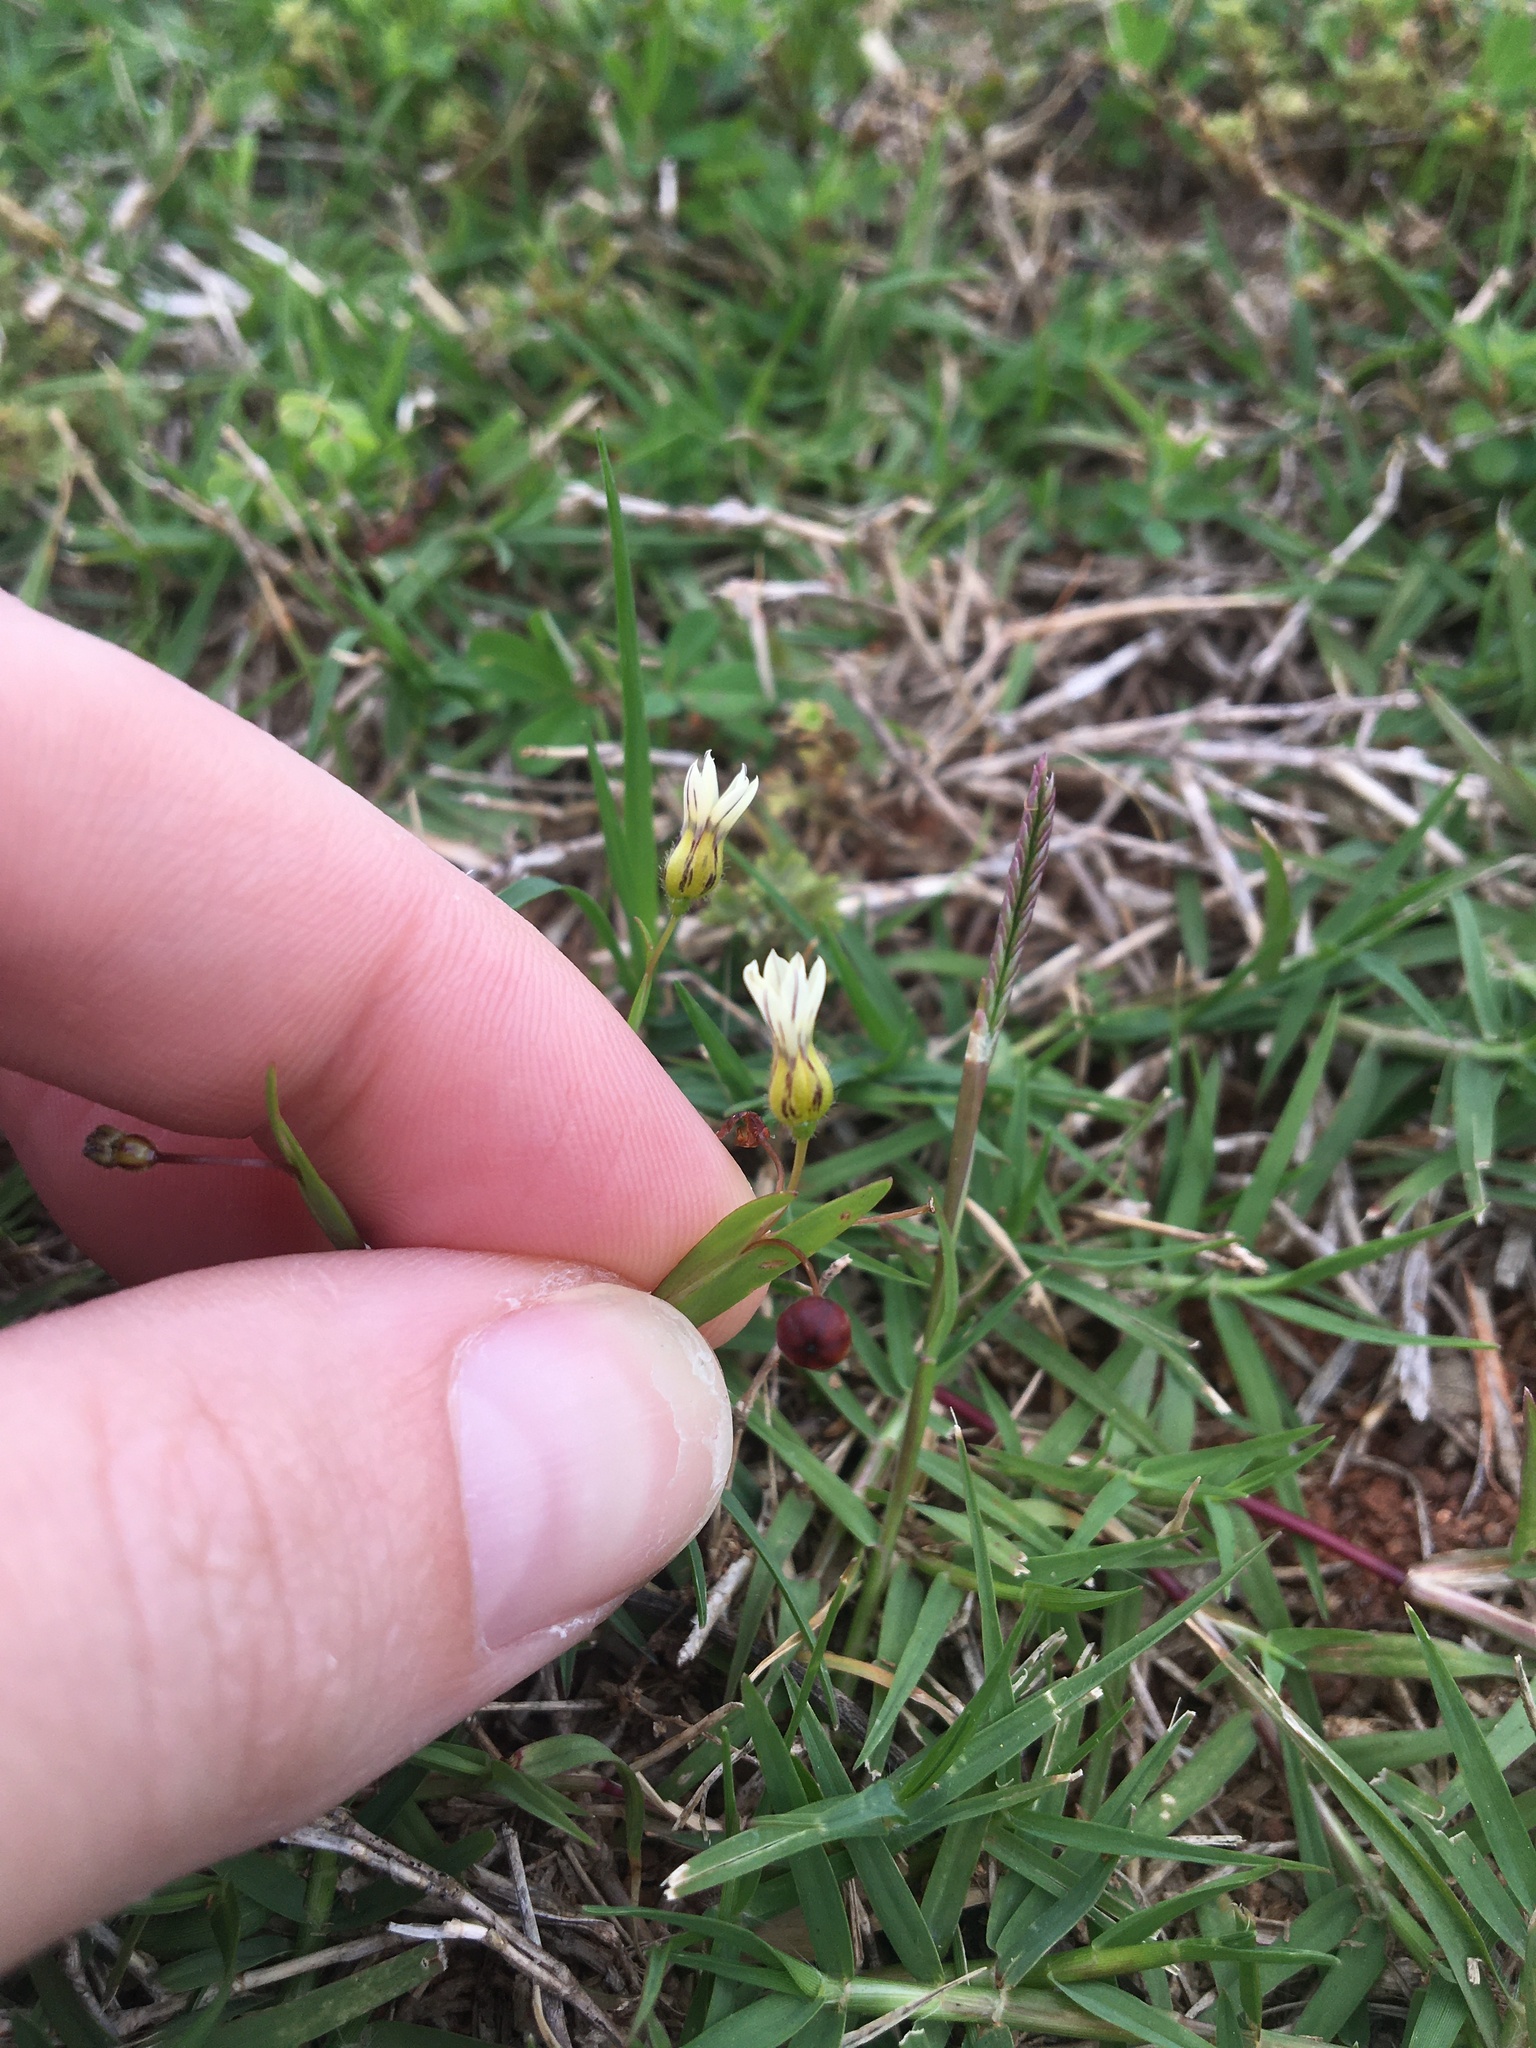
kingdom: Plantae
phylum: Tracheophyta
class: Liliopsida
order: Asparagales
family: Iridaceae
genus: Sisyrinchium
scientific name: Sisyrinchium micranthum
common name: Bermuda pigroot
